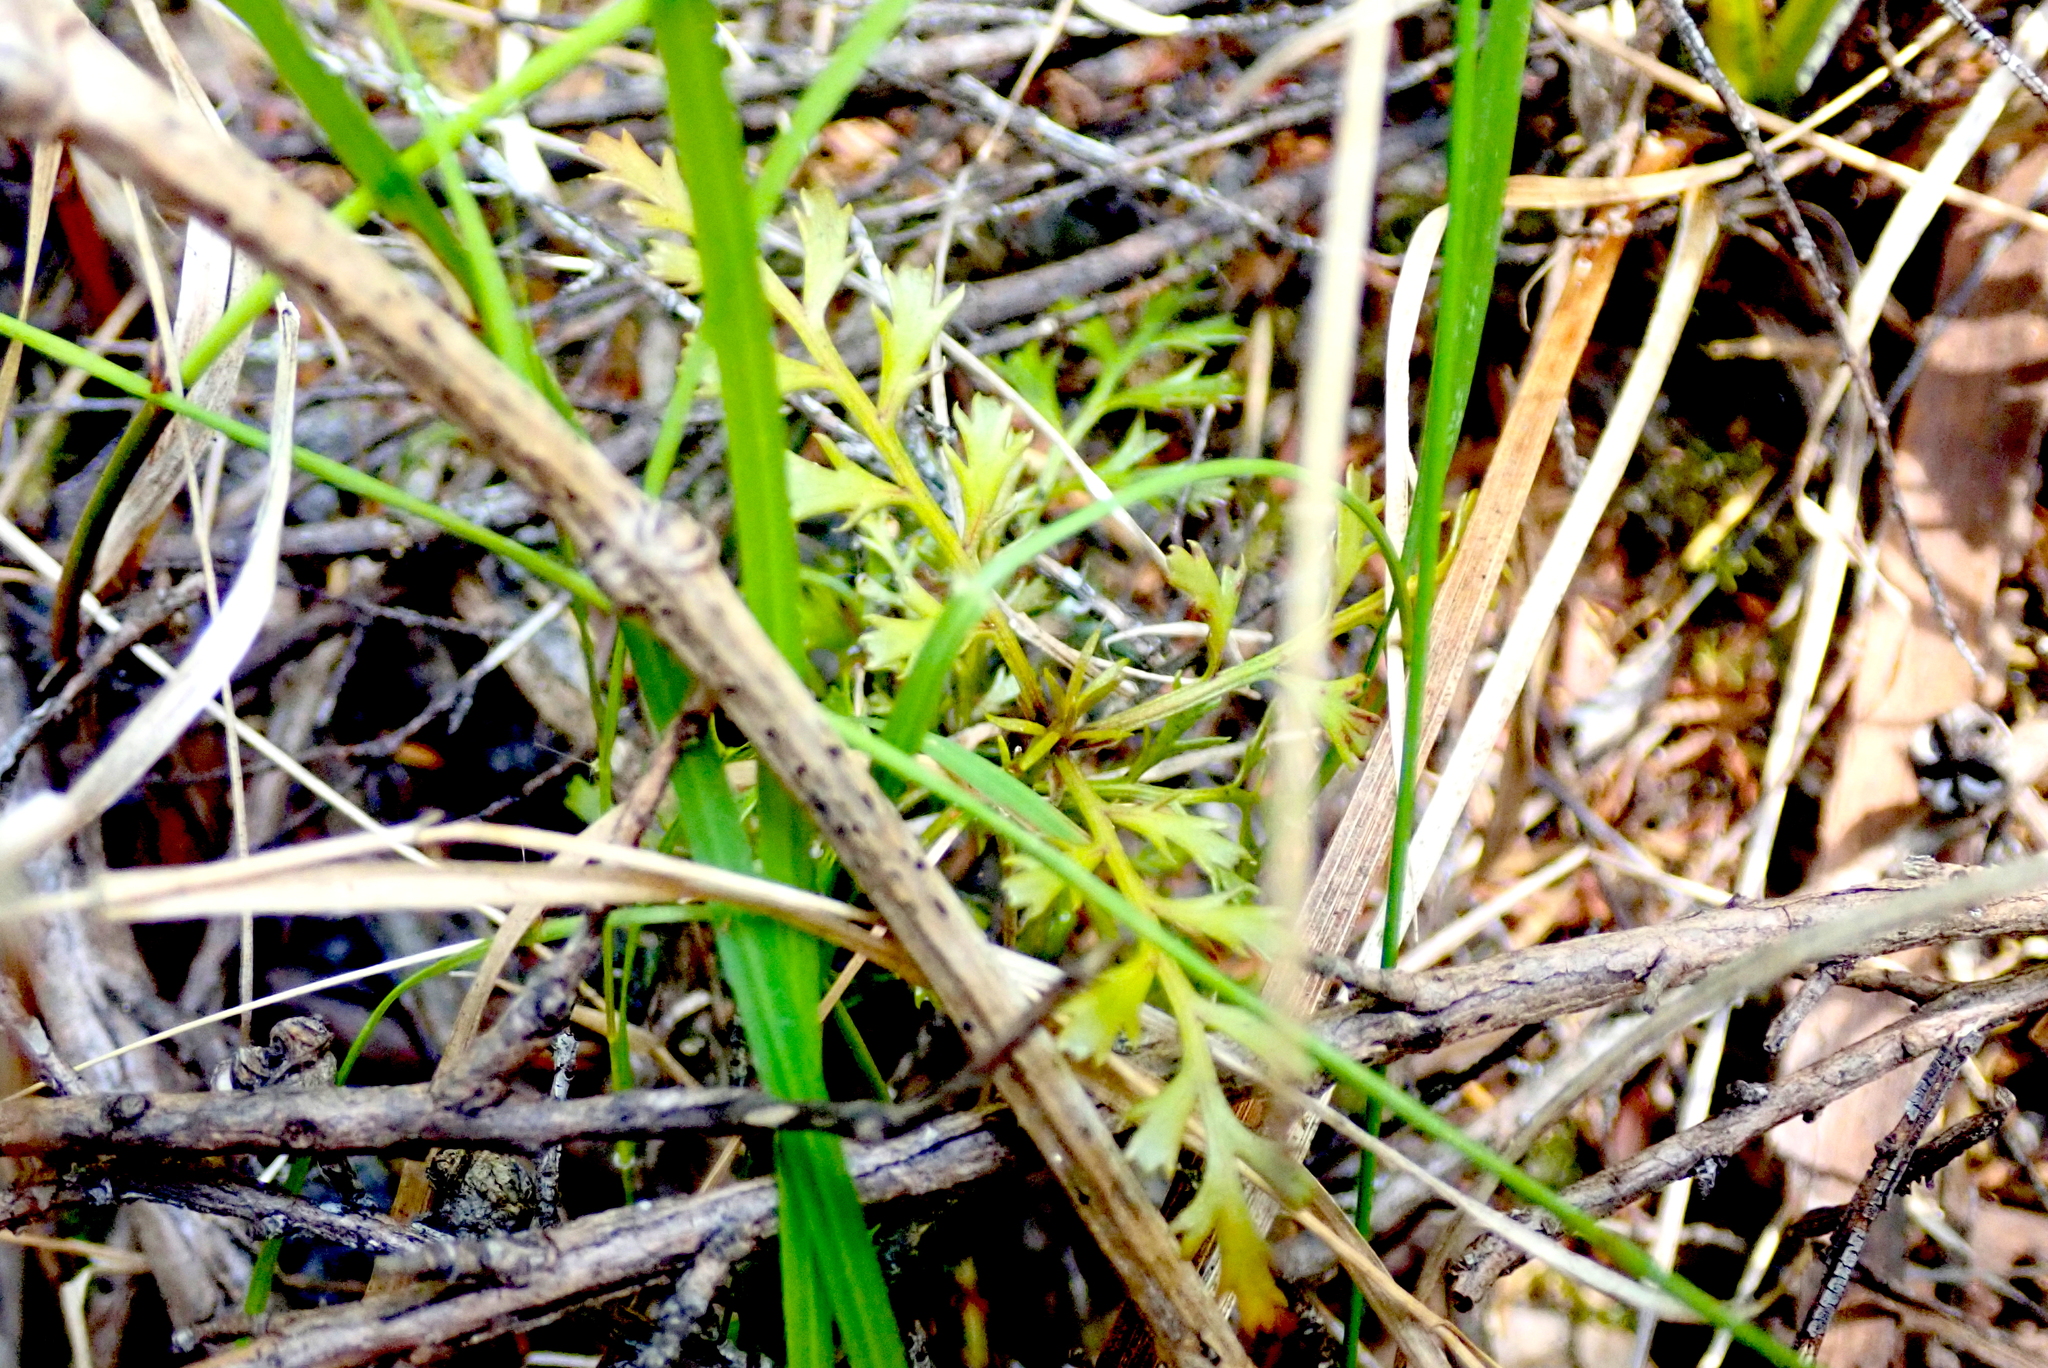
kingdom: Plantae
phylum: Tracheophyta
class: Pinopsida
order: Pinales
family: Phyllocladaceae
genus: Phyllocladus
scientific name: Phyllocladus trichomanoides
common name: Celery pine
